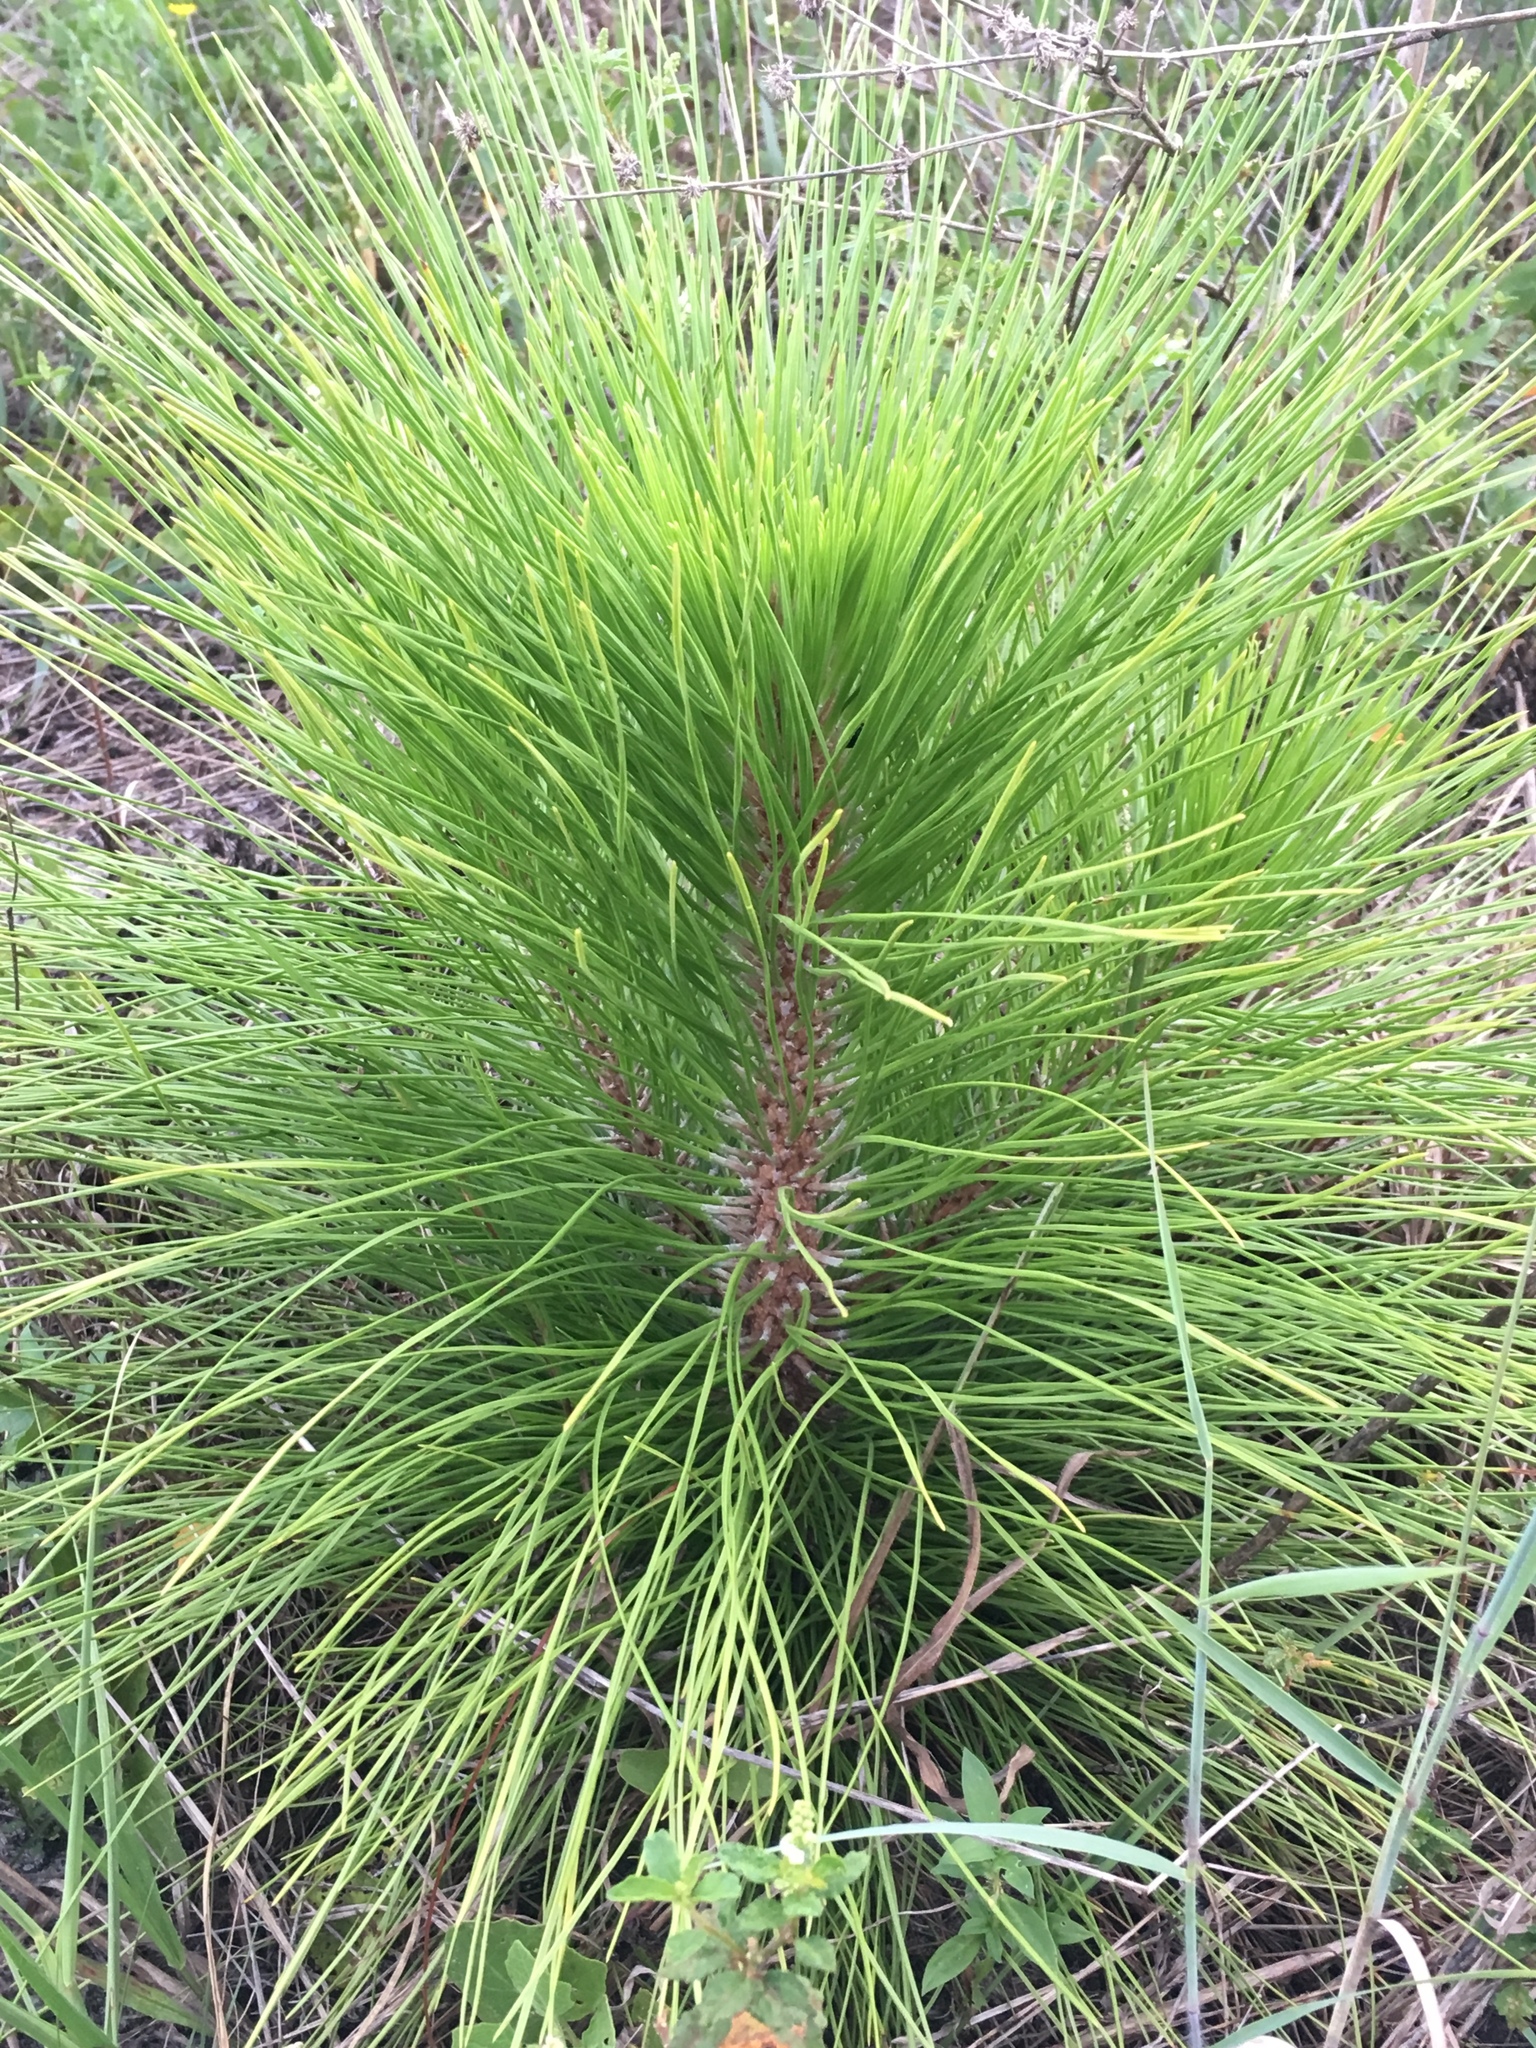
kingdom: Plantae
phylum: Tracheophyta
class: Pinopsida
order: Pinales
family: Pinaceae
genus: Pinus
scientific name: Pinus elliottii
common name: Slash pine
